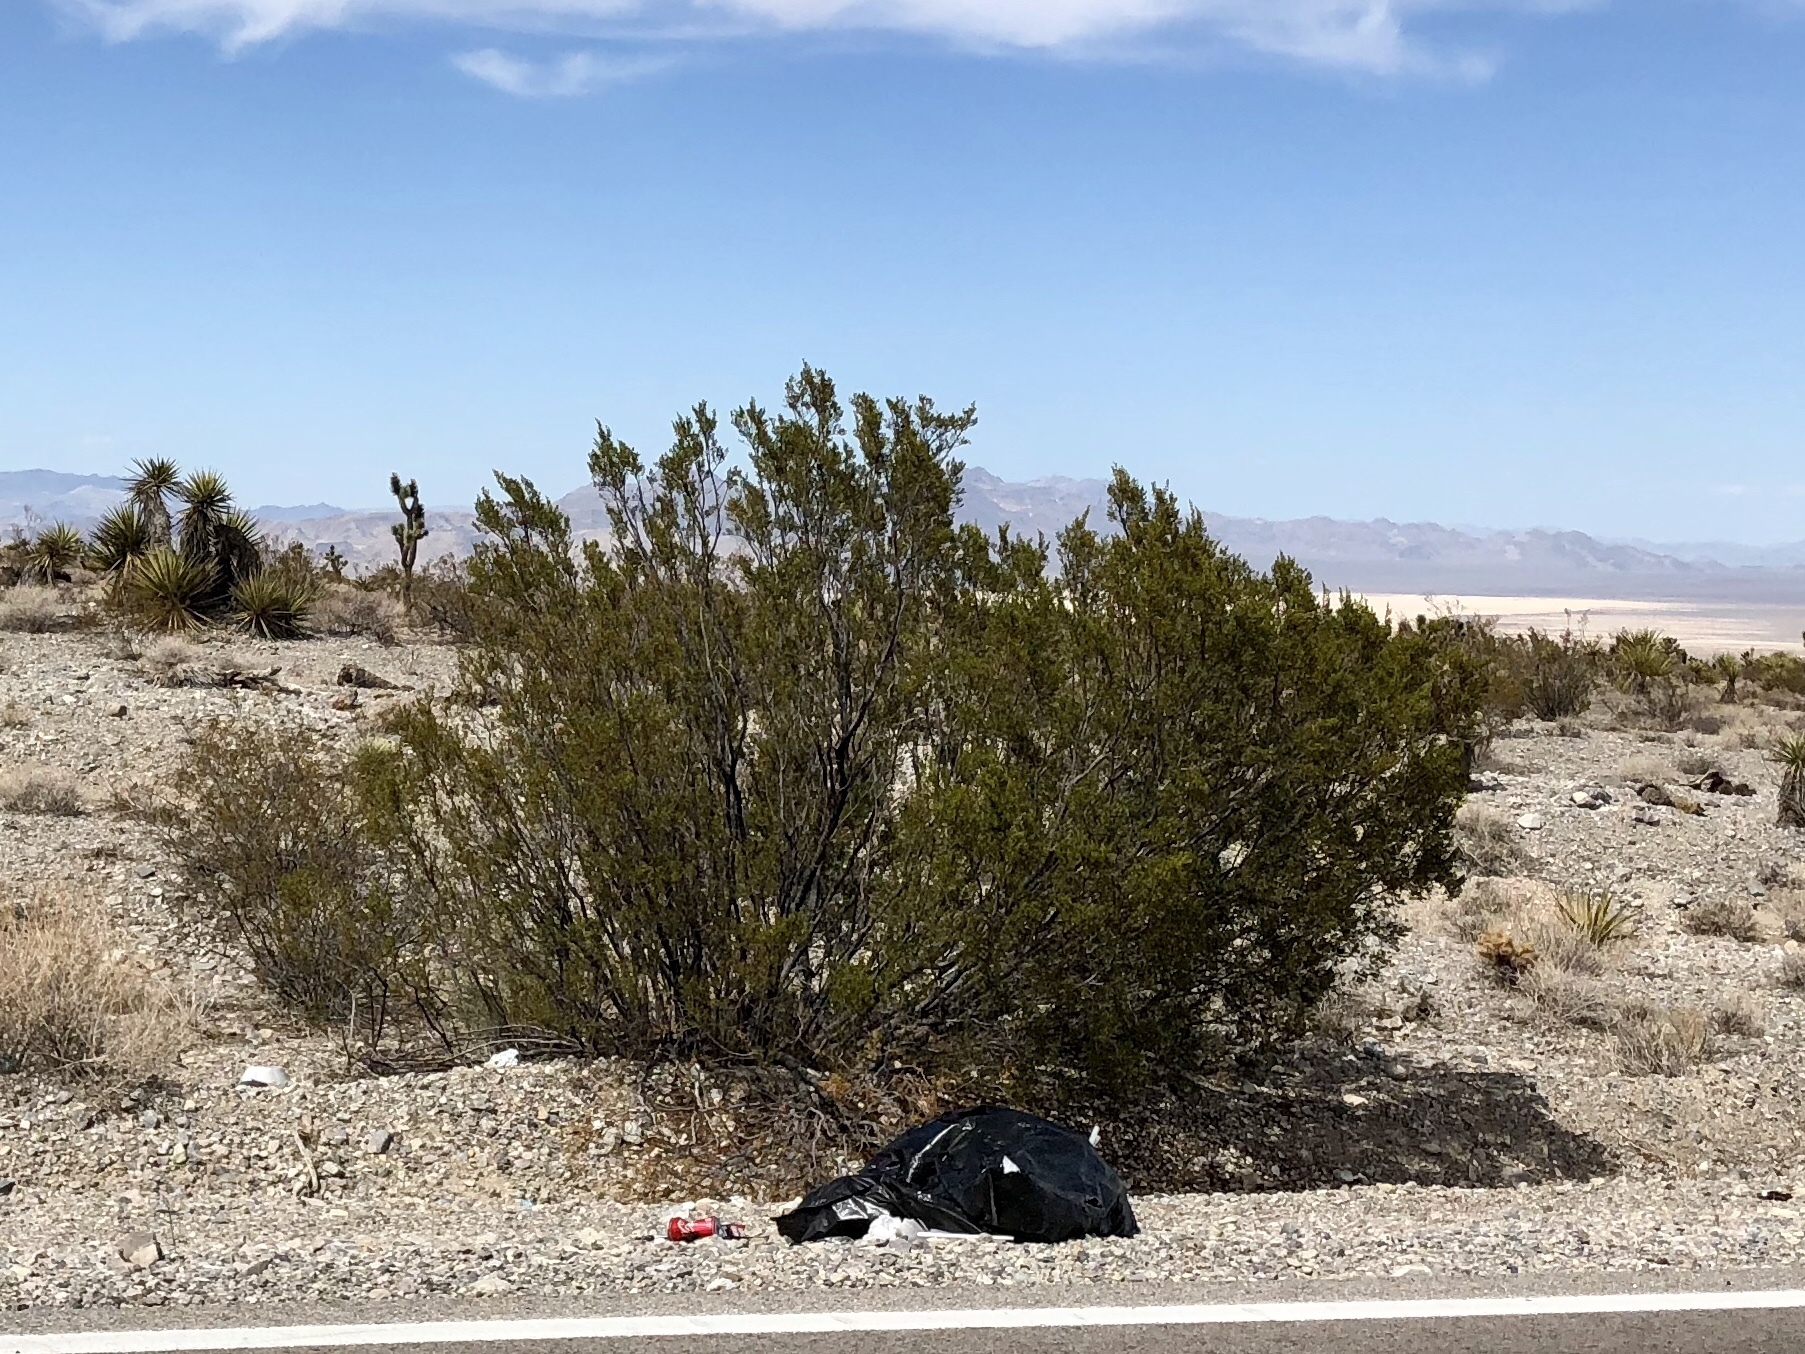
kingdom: Plantae
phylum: Tracheophyta
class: Magnoliopsida
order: Zygophyllales
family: Zygophyllaceae
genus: Larrea
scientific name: Larrea tridentata
